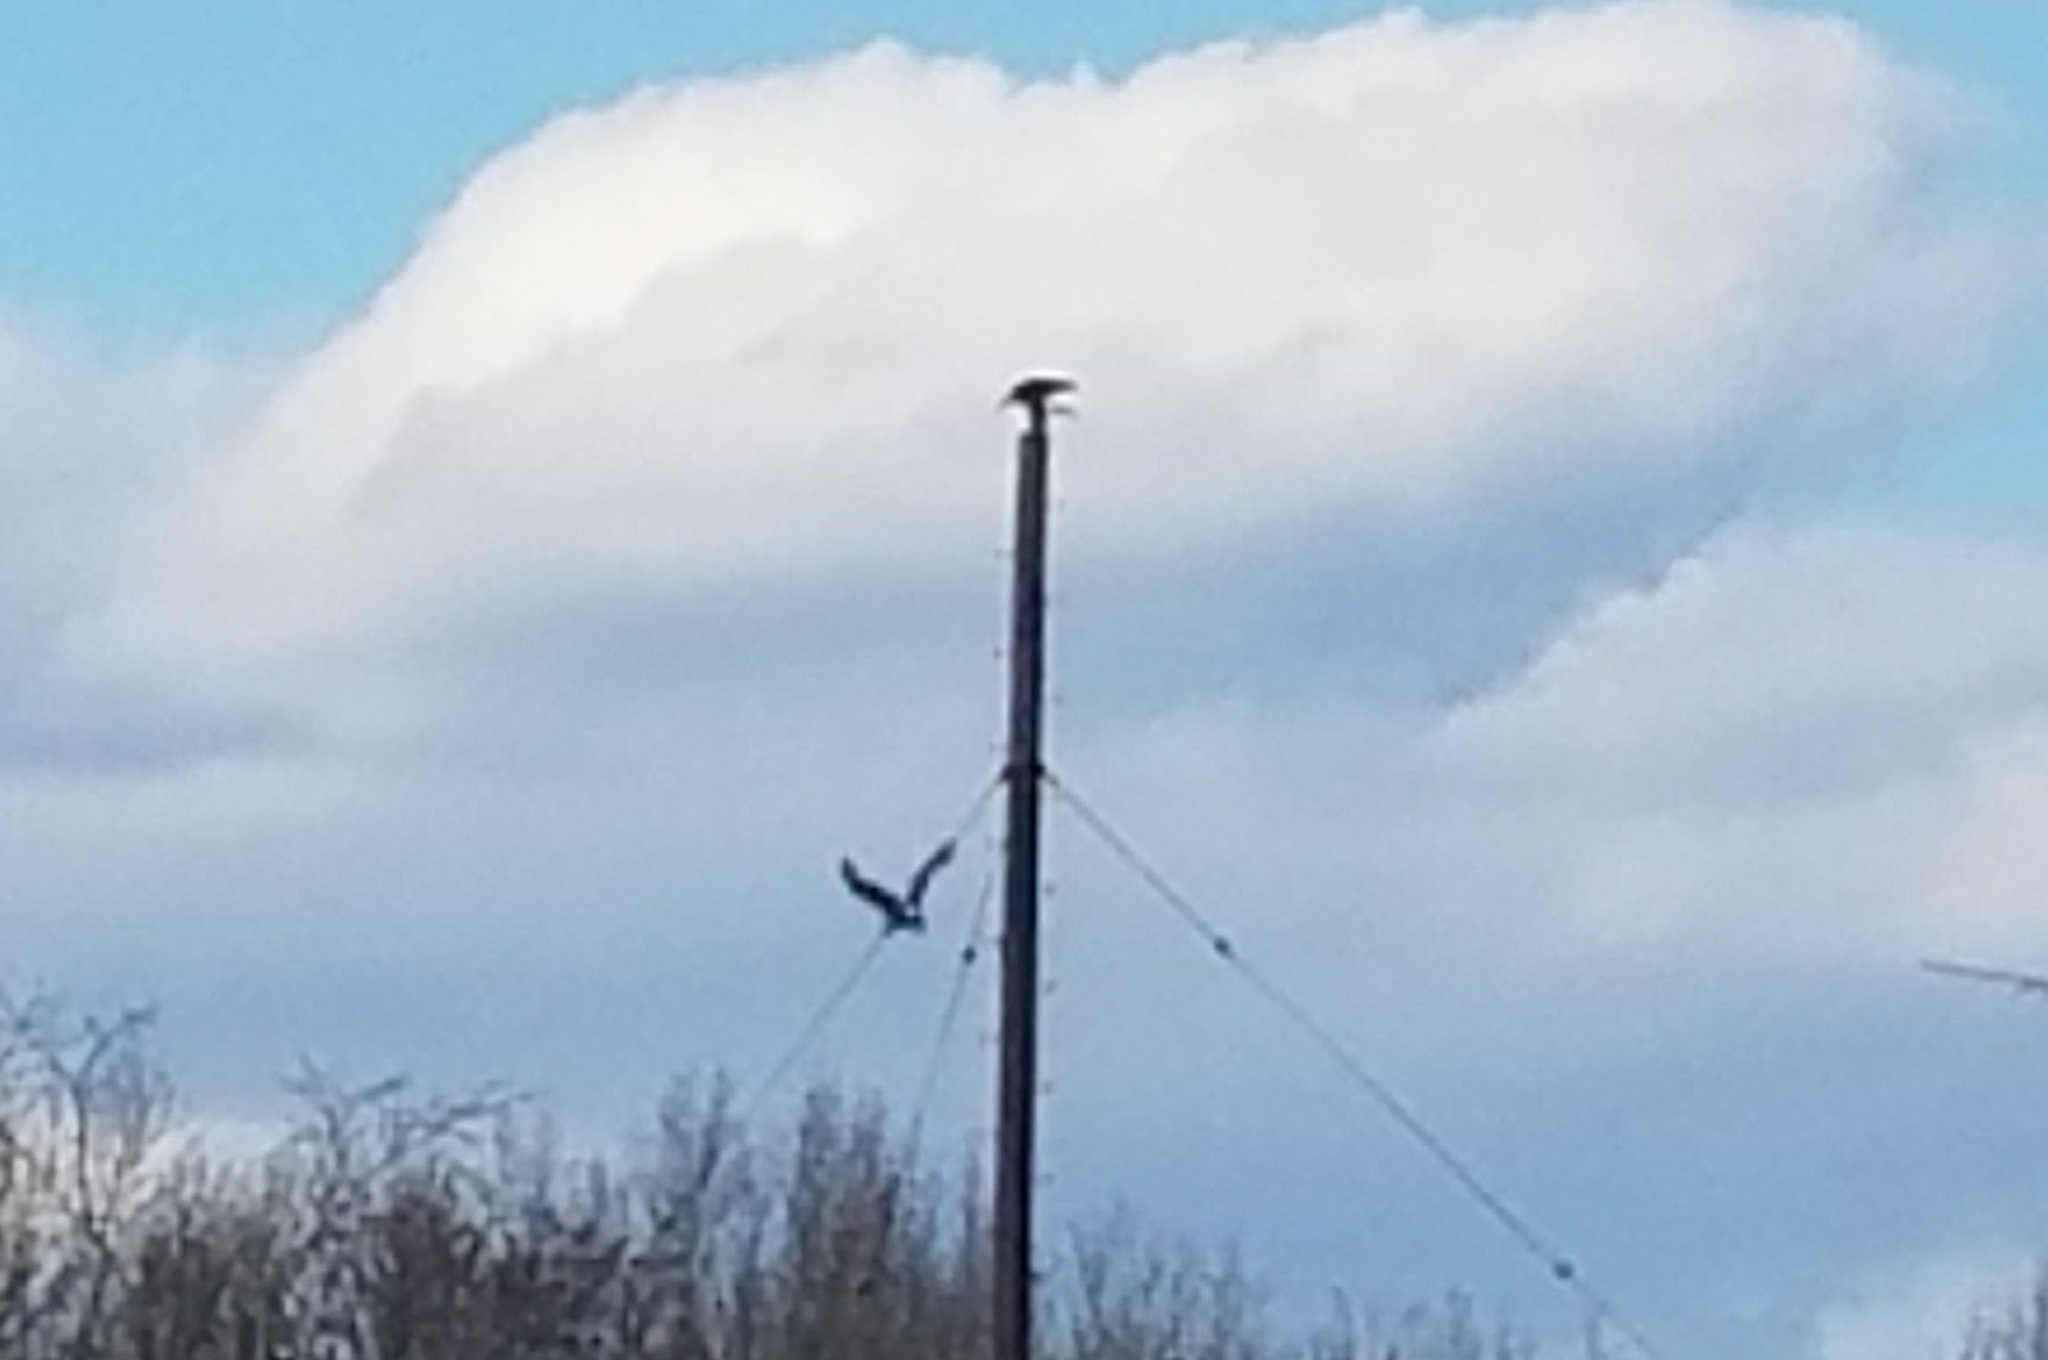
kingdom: Animalia
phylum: Chordata
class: Aves
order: Accipitriformes
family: Accipitridae
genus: Haliaeetus
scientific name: Haliaeetus leucocephalus
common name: Bald eagle
